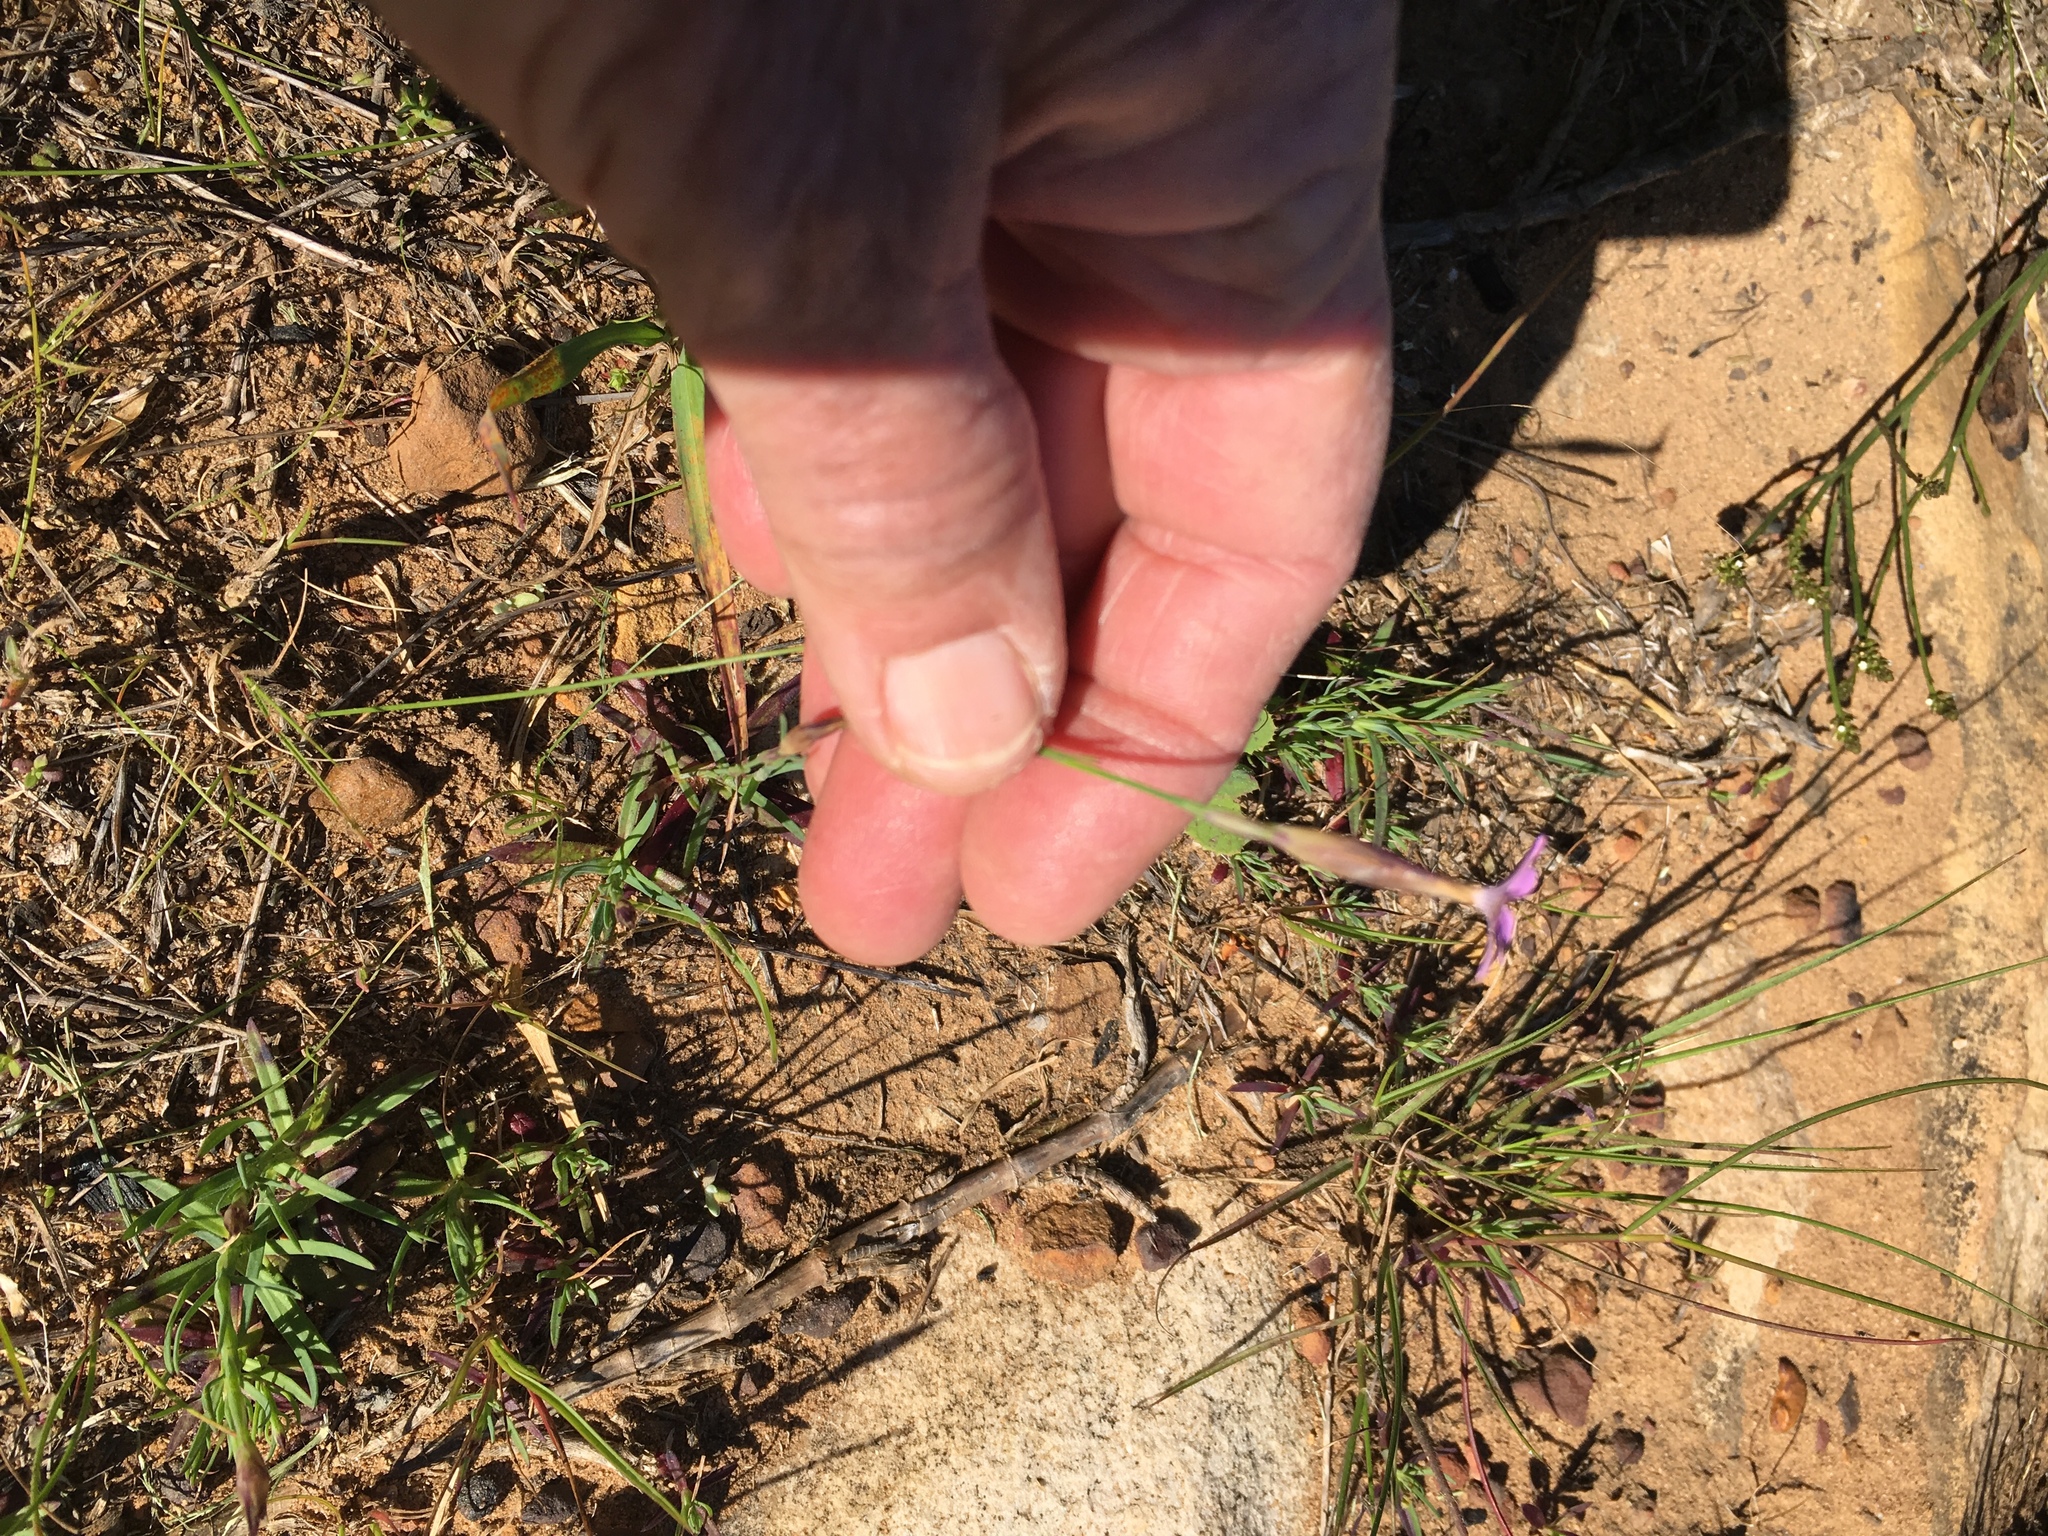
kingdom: Plantae
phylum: Tracheophyta
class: Magnoliopsida
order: Caryophyllales
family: Caryophyllaceae
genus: Petrorhagia
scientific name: Petrorhagia prolifera
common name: Proliferous pink
